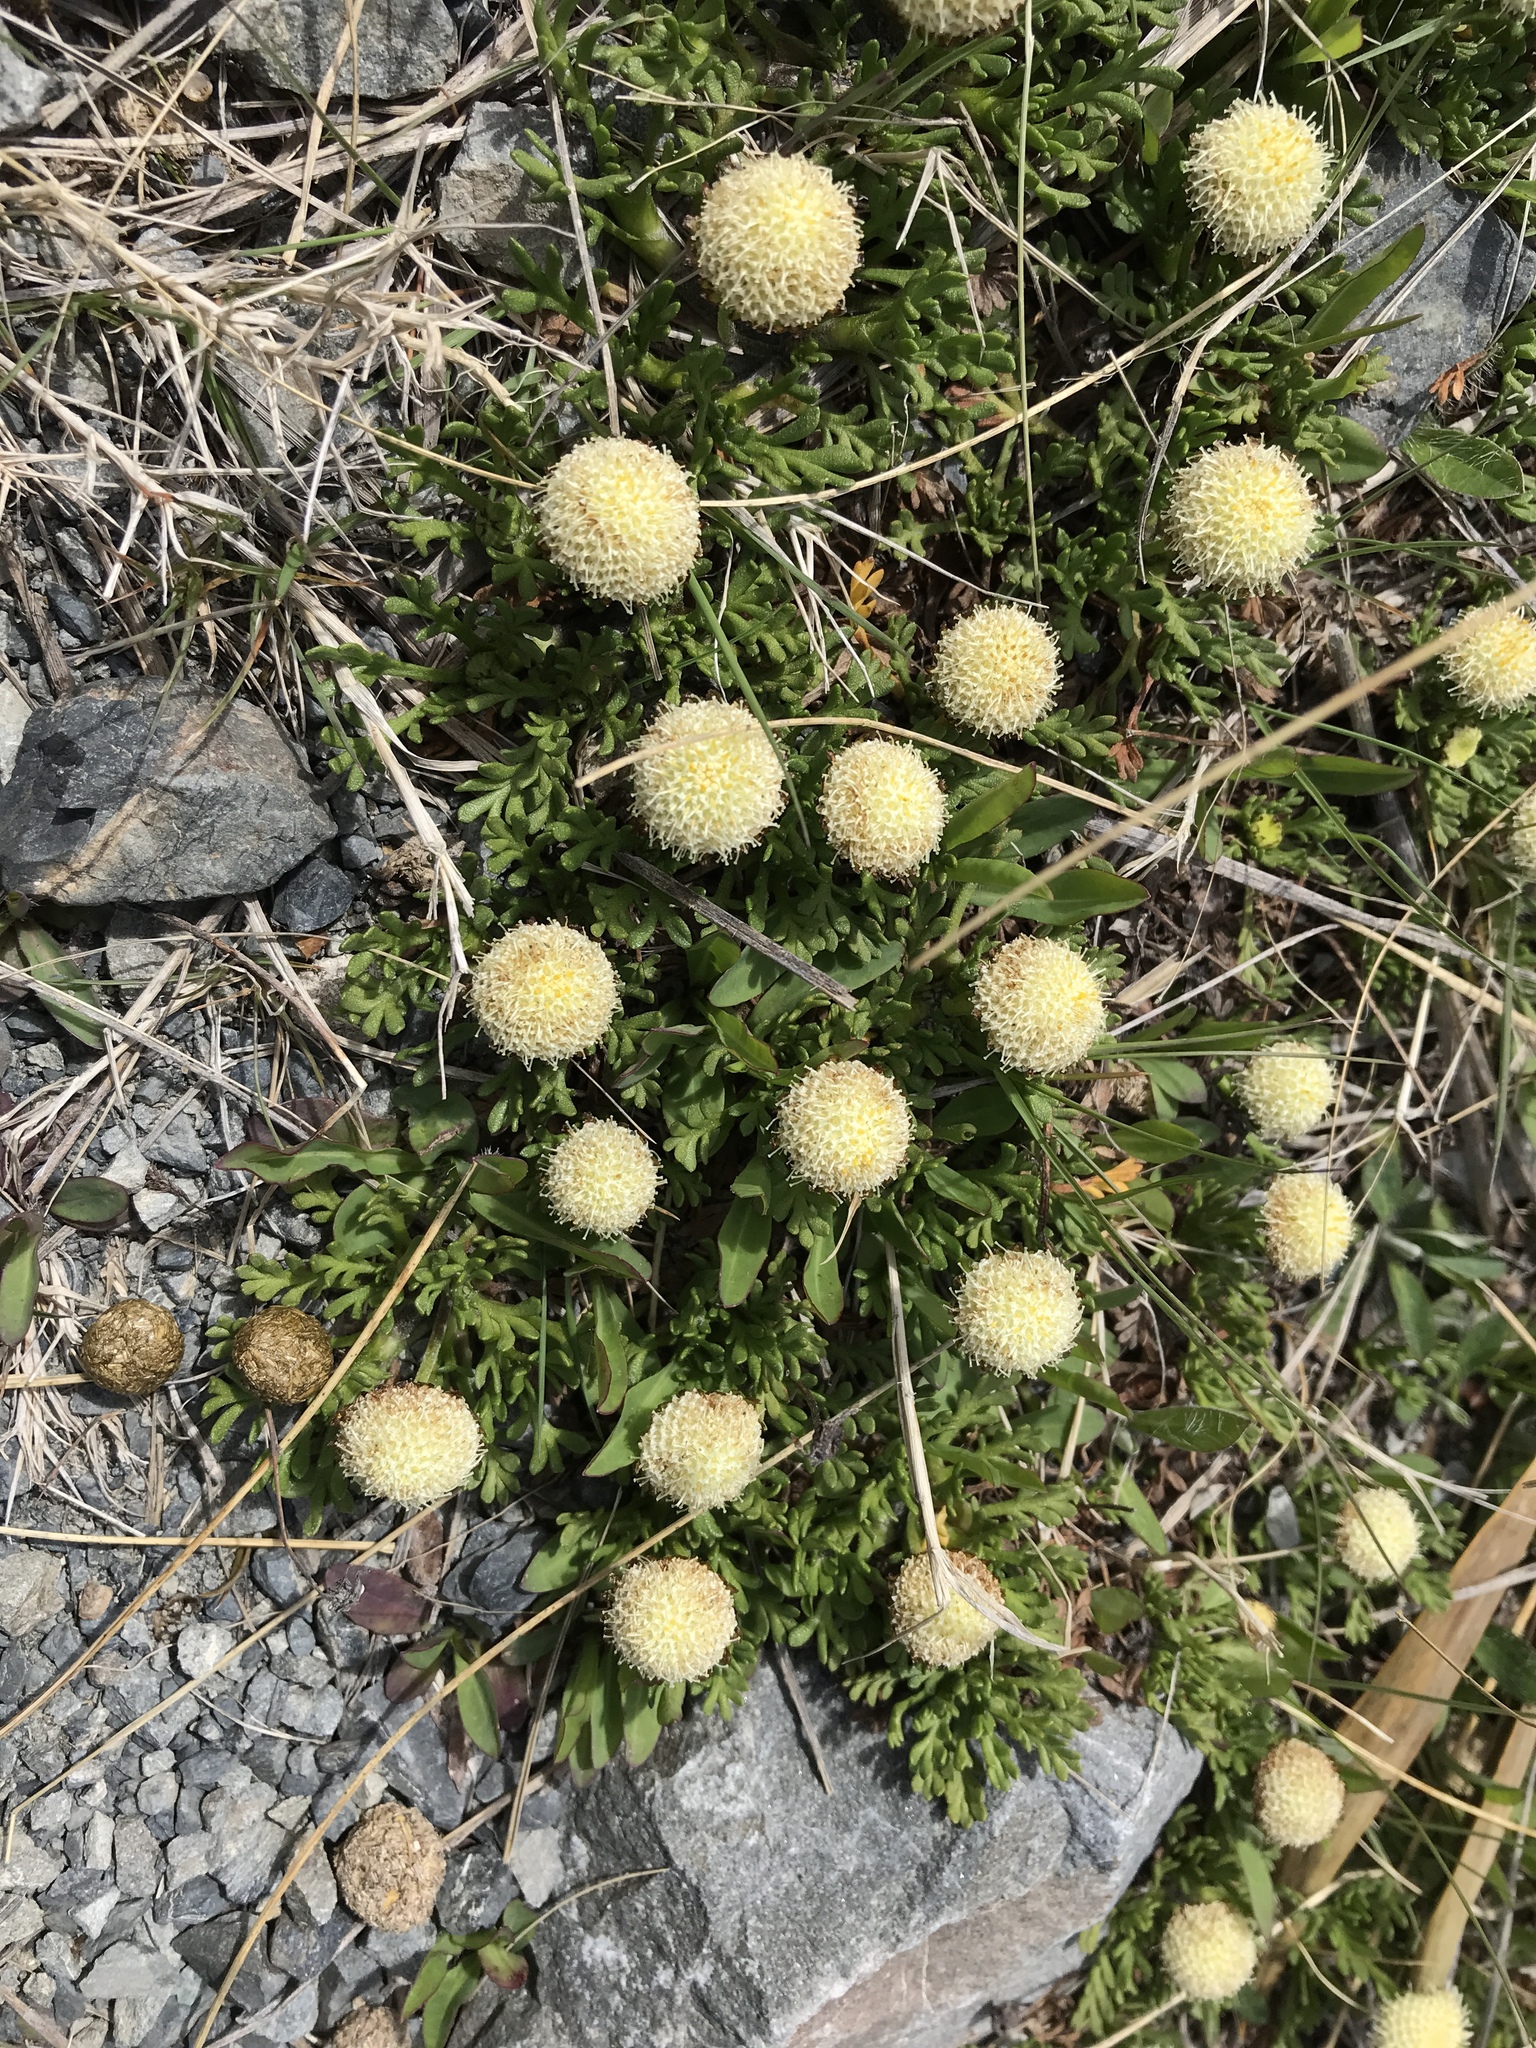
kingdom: Plantae
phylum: Tracheophyta
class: Magnoliopsida
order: Asterales
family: Asteraceae
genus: Leptinella
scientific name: Leptinella pyrethrifolia
